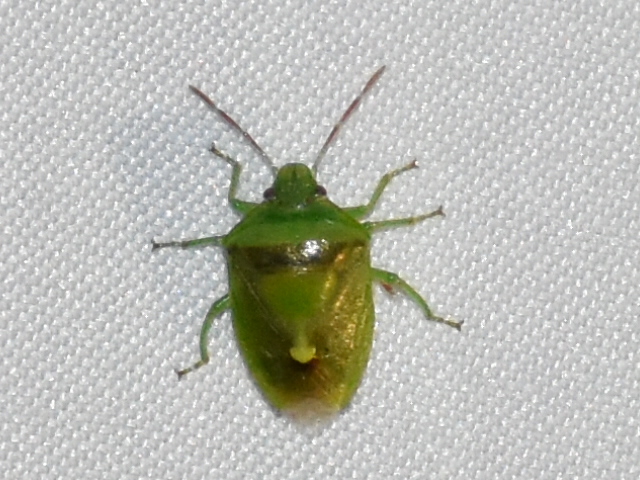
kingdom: Animalia
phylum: Arthropoda
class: Insecta
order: Hemiptera
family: Pentatomidae
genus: Banasa
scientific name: Banasa dimidiata
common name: Green burgundy stink bug
